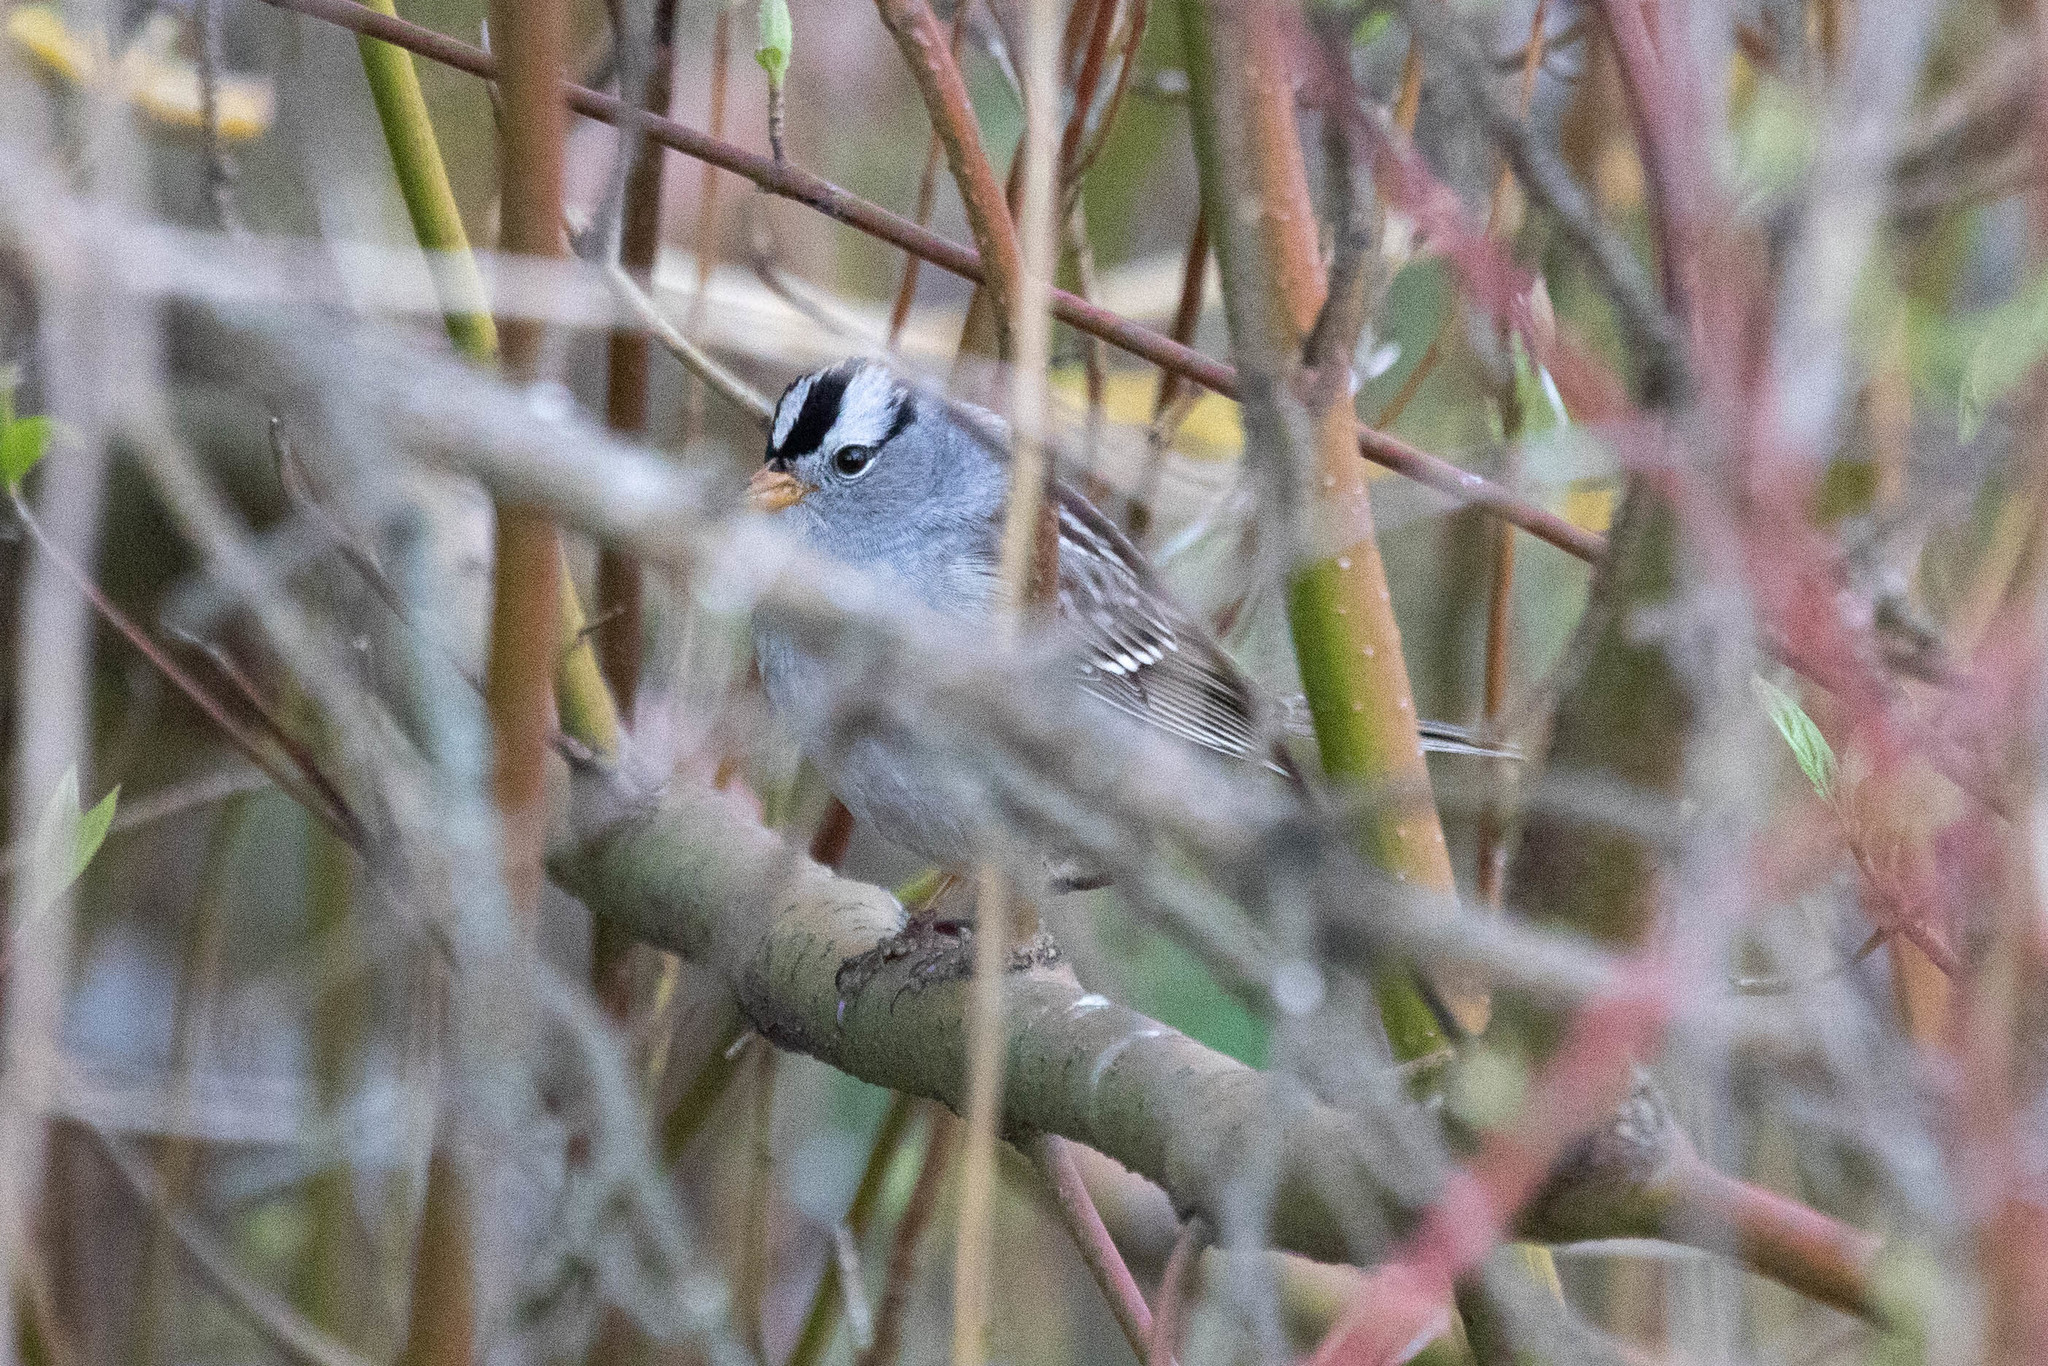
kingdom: Animalia
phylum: Chordata
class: Aves
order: Passeriformes
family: Passerellidae
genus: Zonotrichia
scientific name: Zonotrichia leucophrys
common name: White-crowned sparrow
